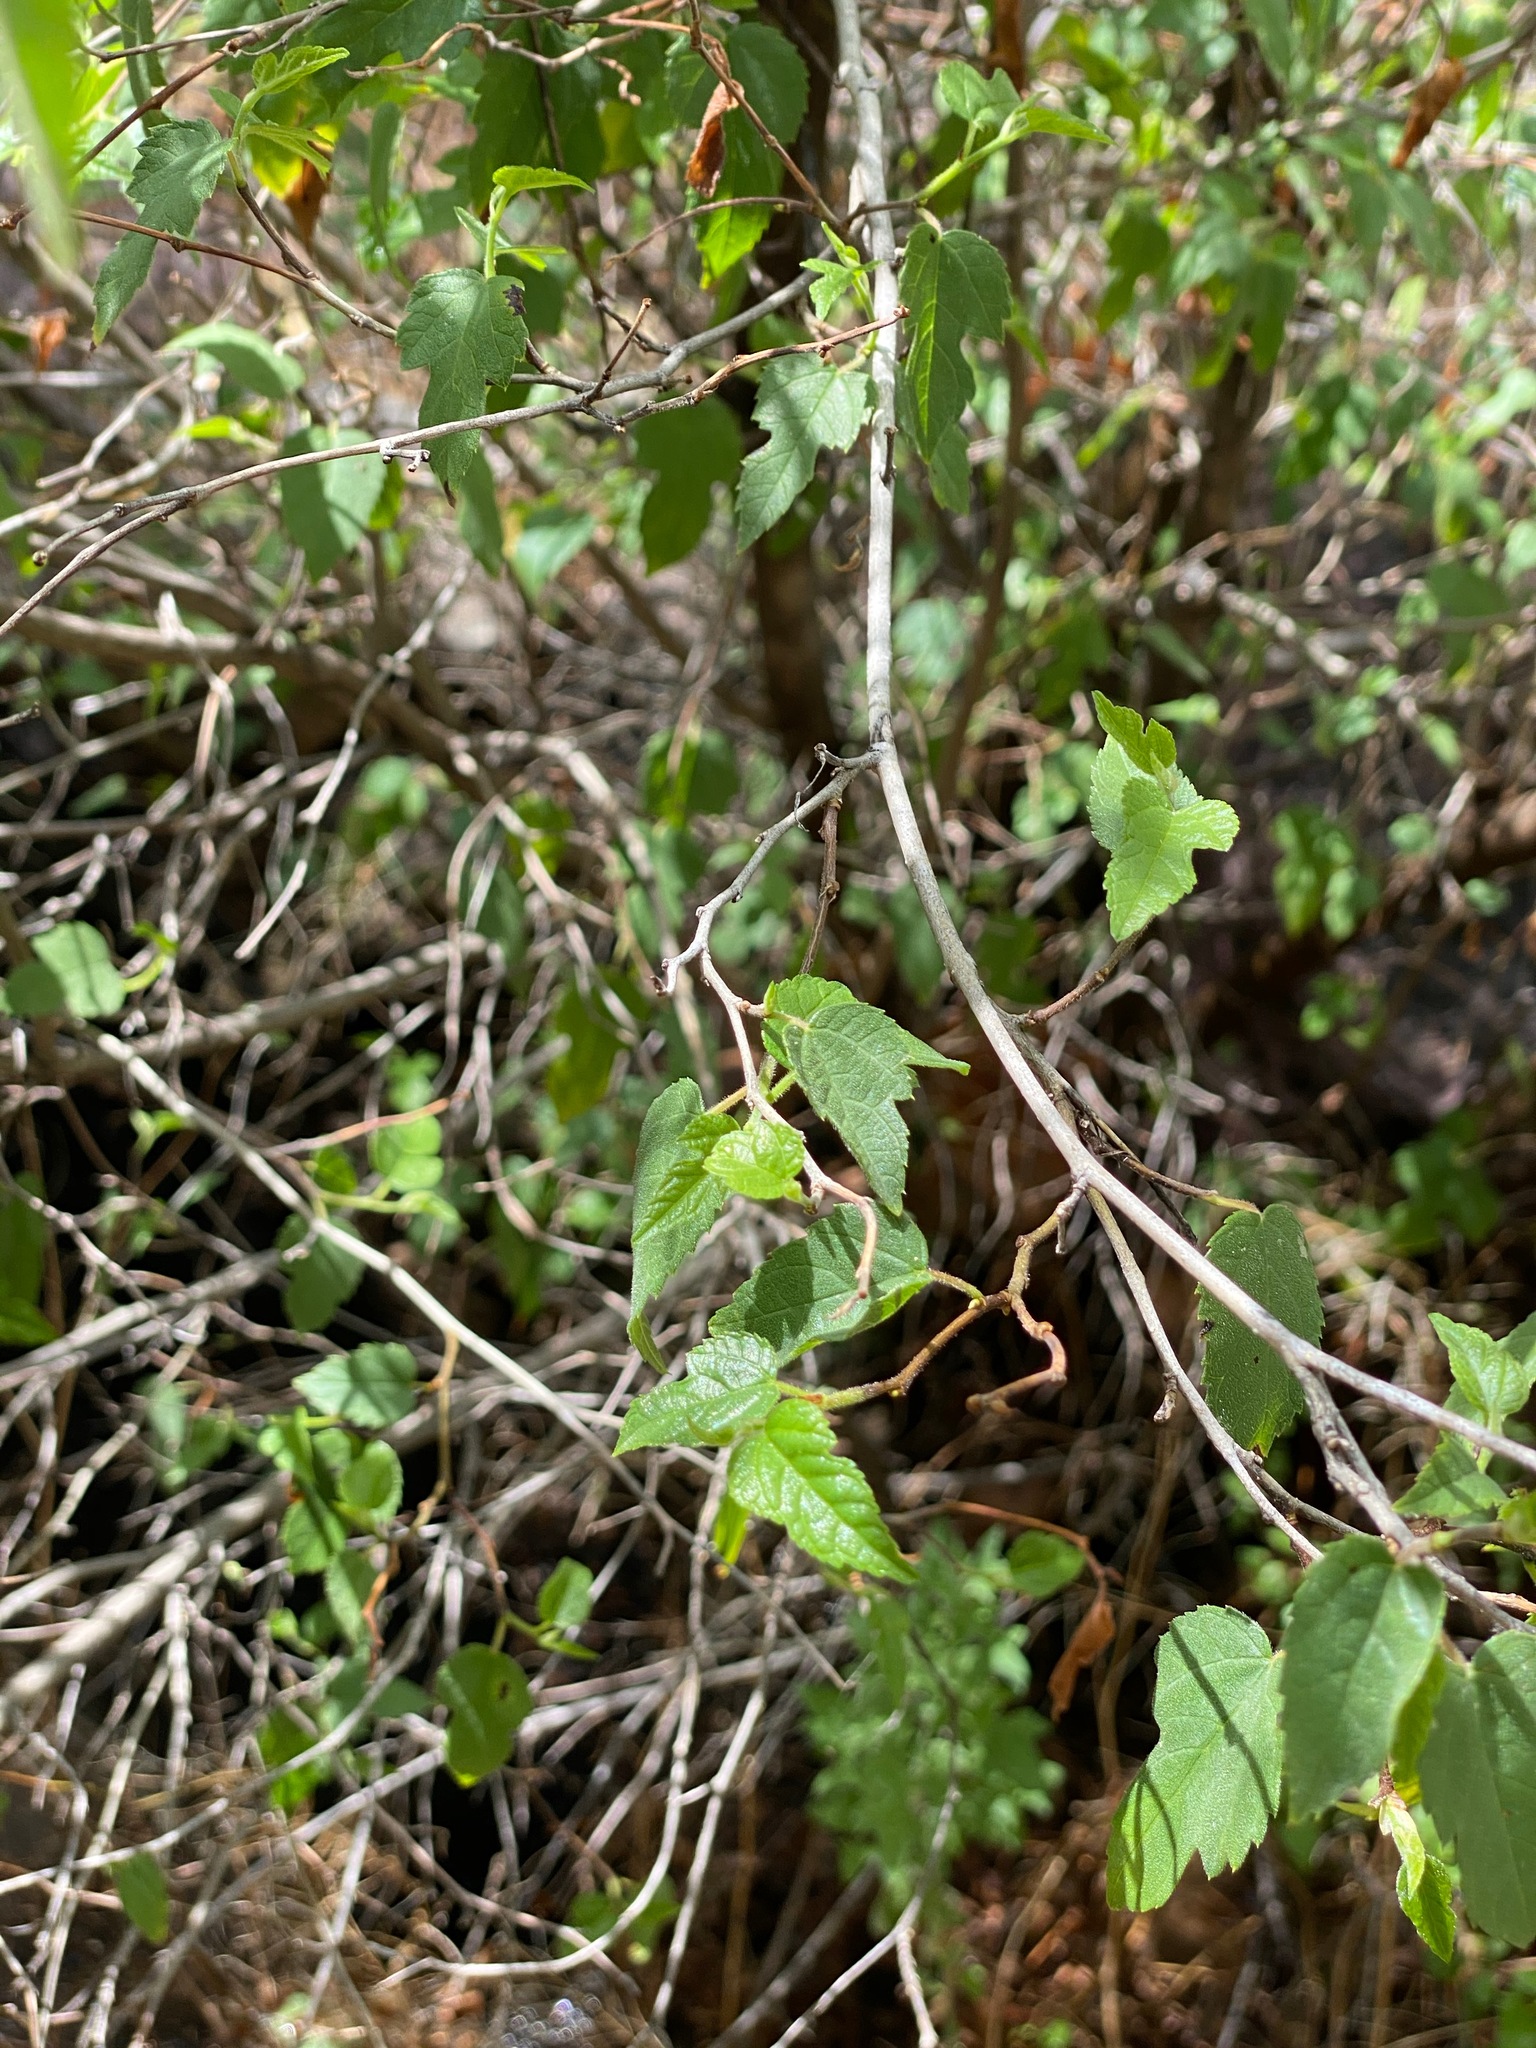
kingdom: Plantae
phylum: Tracheophyta
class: Magnoliopsida
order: Rosales
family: Moraceae
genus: Morus
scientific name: Morus microphylla
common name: Mexican mulberry
